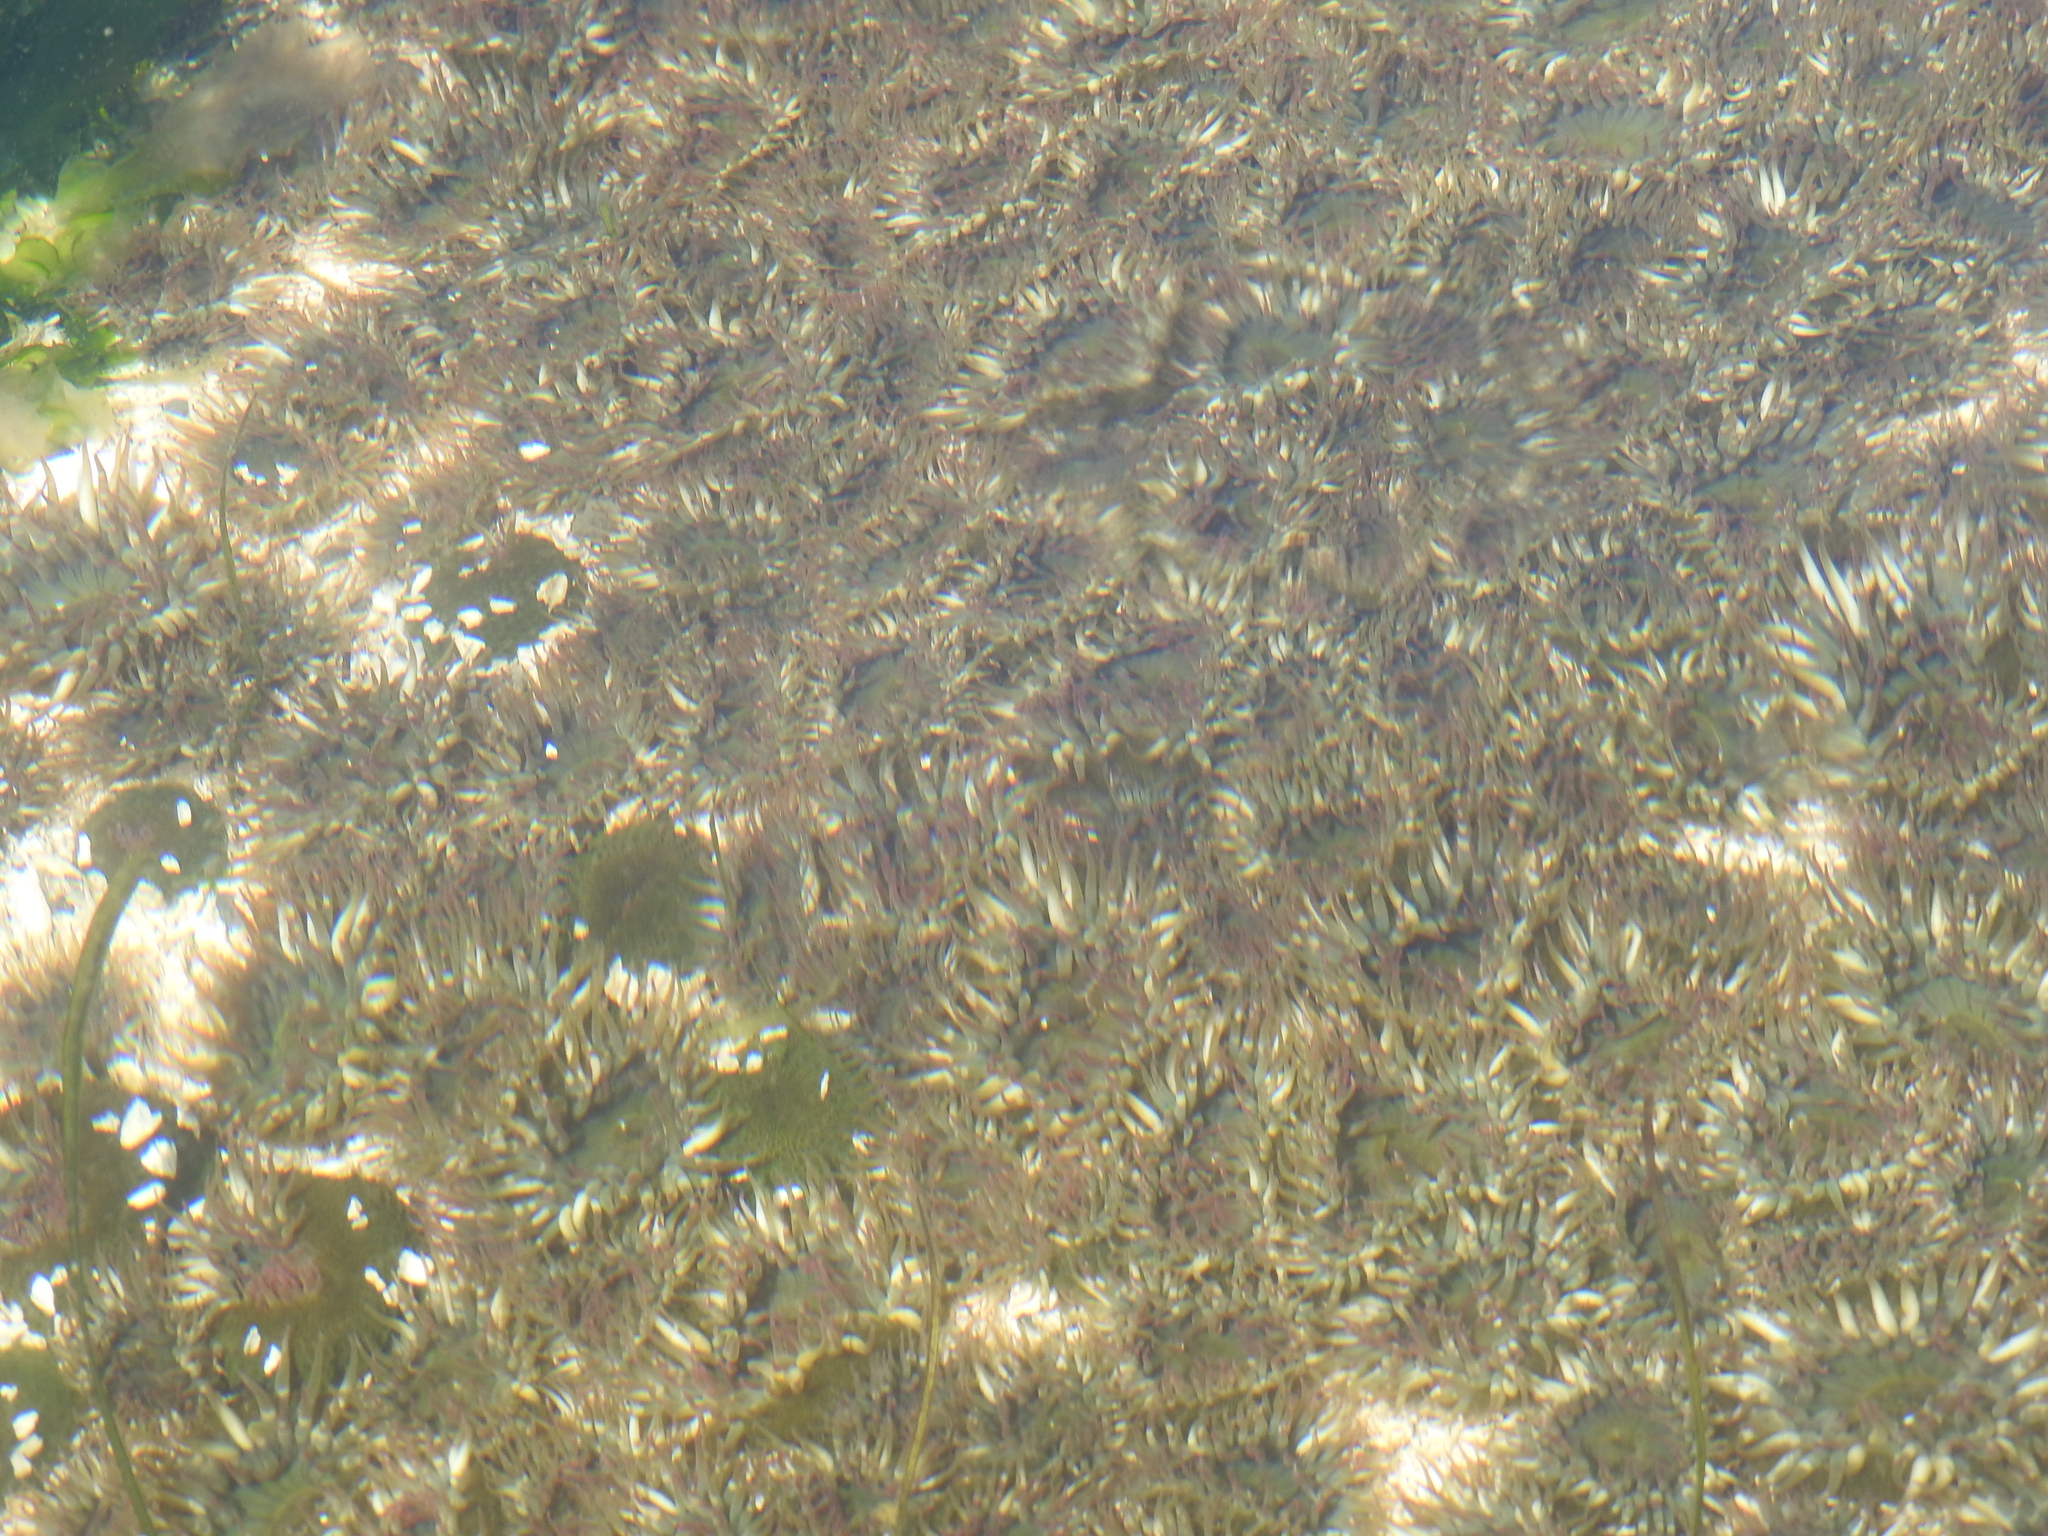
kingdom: Animalia
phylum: Cnidaria
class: Anthozoa
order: Actiniaria
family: Actiniidae
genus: Anthopleura
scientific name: Anthopleura elegantissima
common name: Clonal anemone
